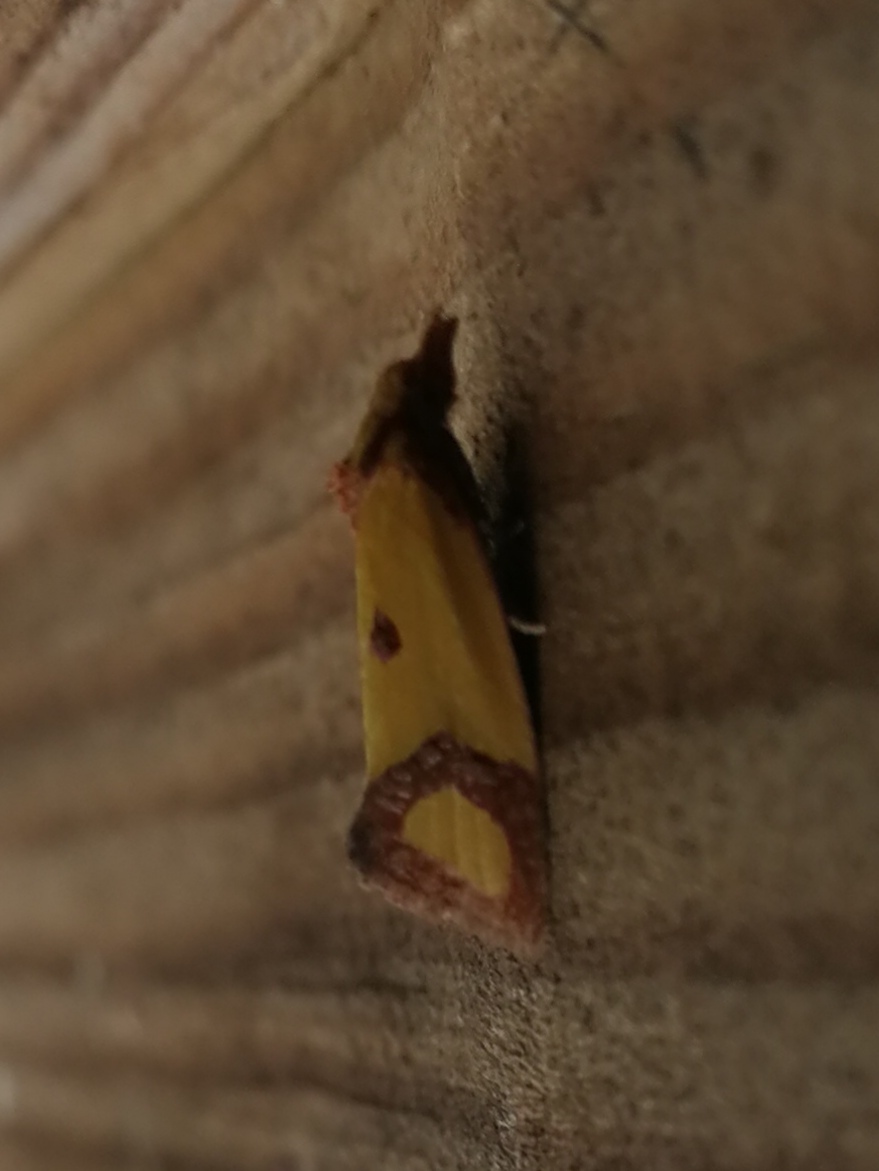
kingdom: Animalia
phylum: Arthropoda
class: Insecta
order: Lepidoptera
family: Tortricidae
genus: Agapeta
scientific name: Agapeta zoegana
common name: Sulfur knapweed root moth
